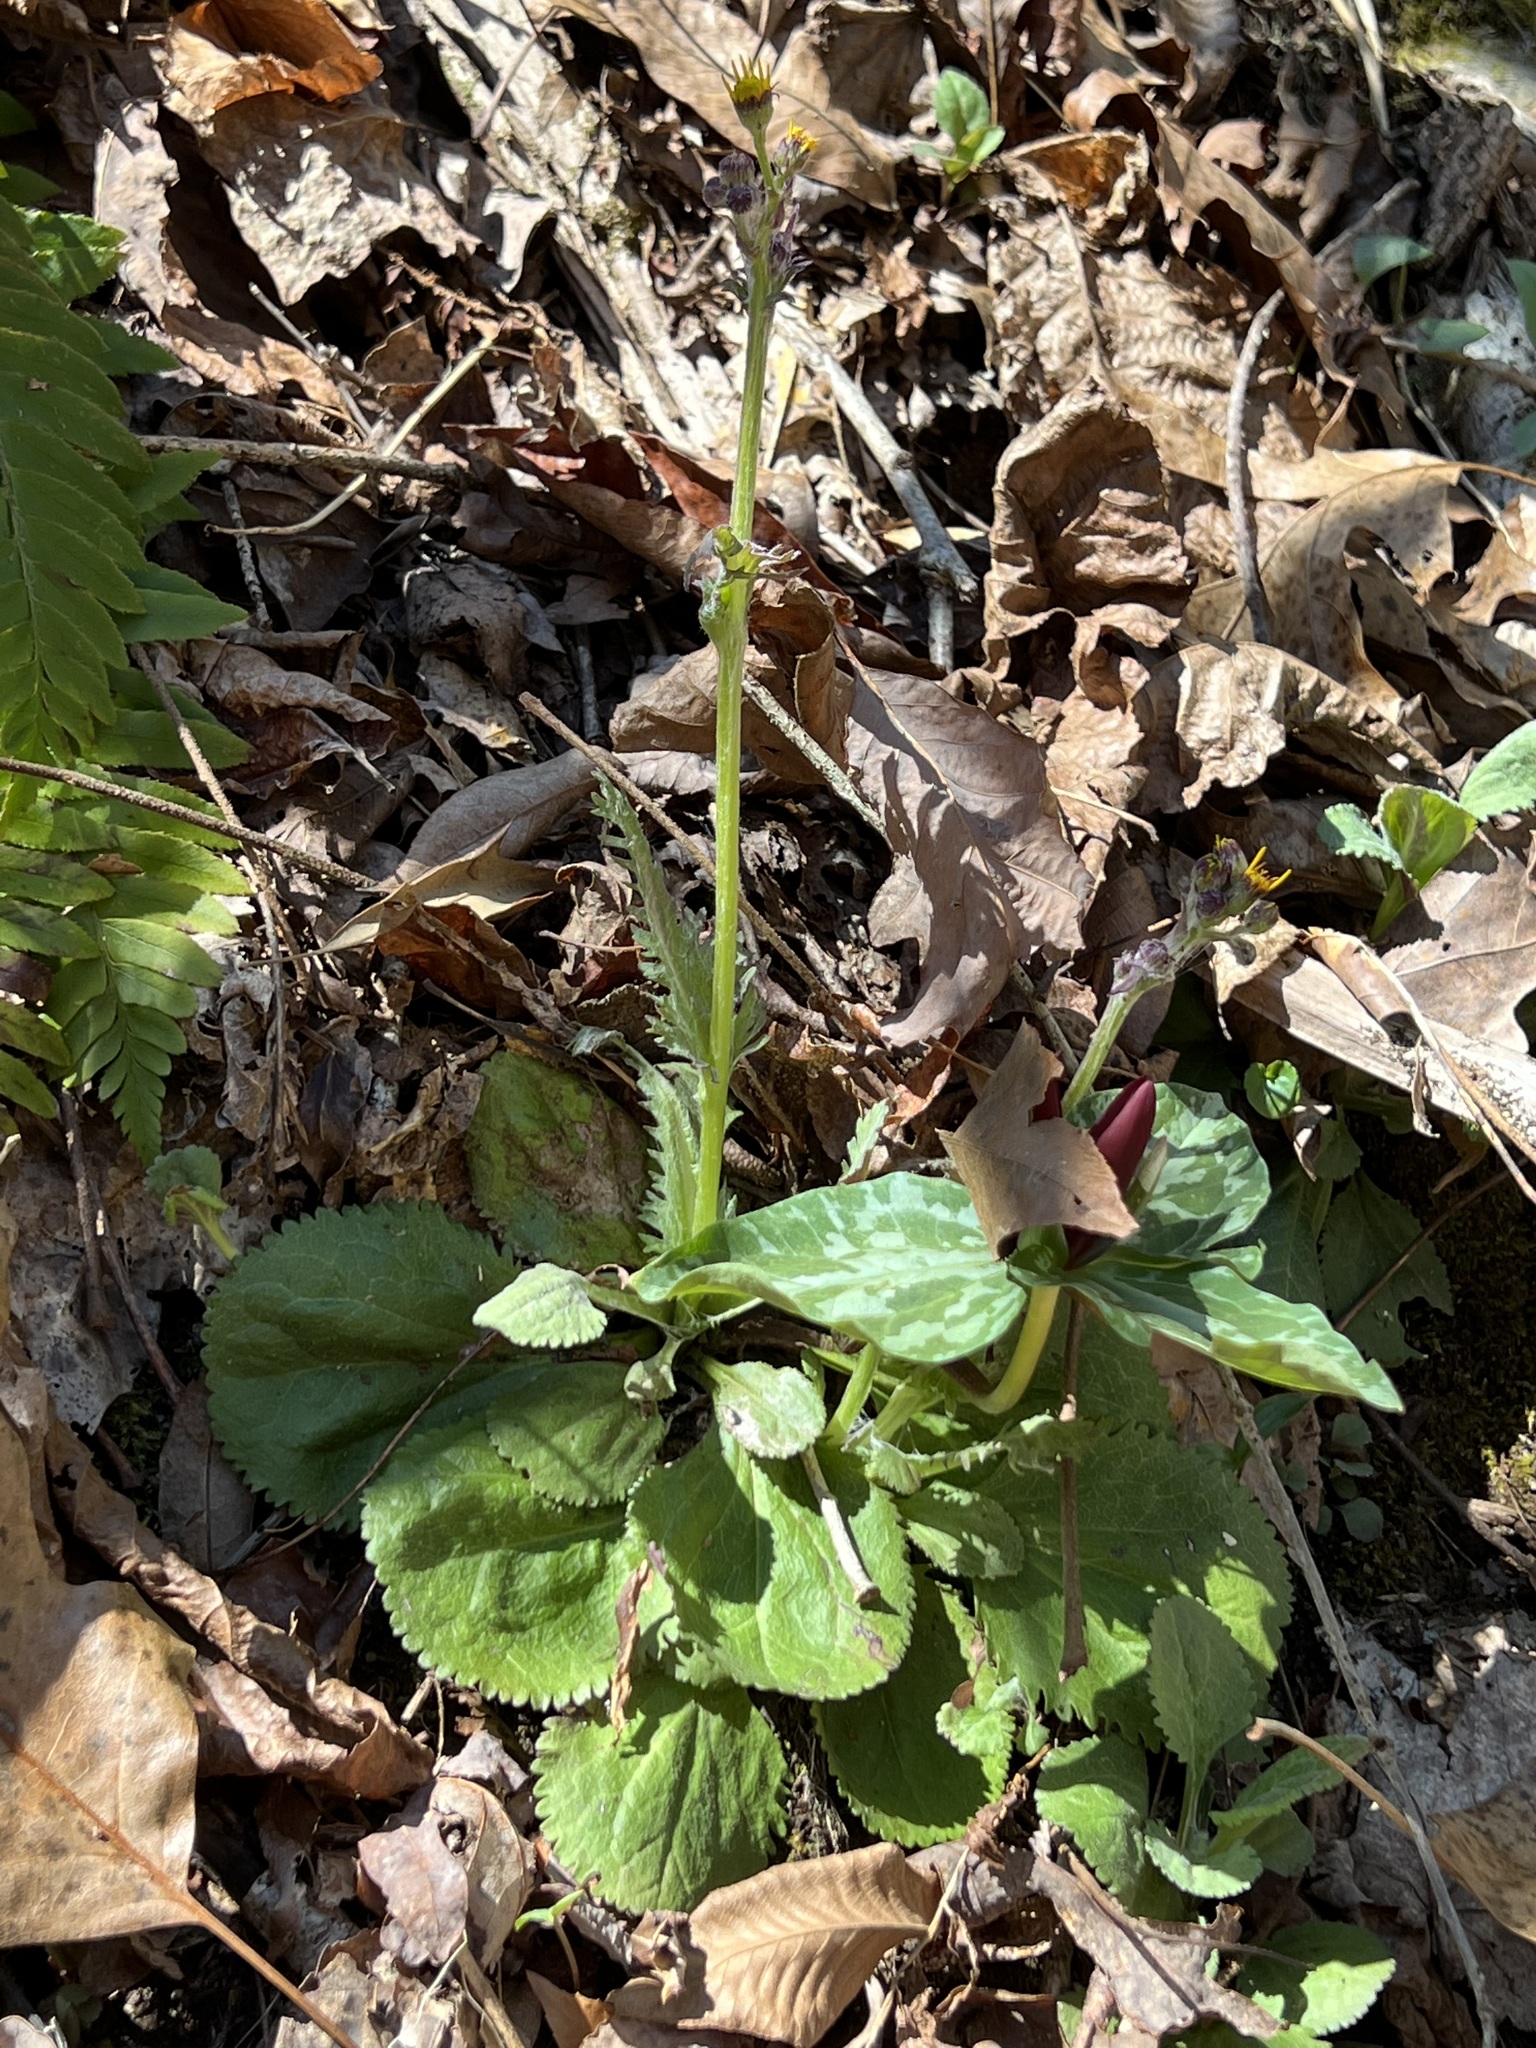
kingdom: Plantae
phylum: Tracheophyta
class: Magnoliopsida
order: Asterales
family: Asteraceae
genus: Packera
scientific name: Packera obovata
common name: Round-leaf ragwort
